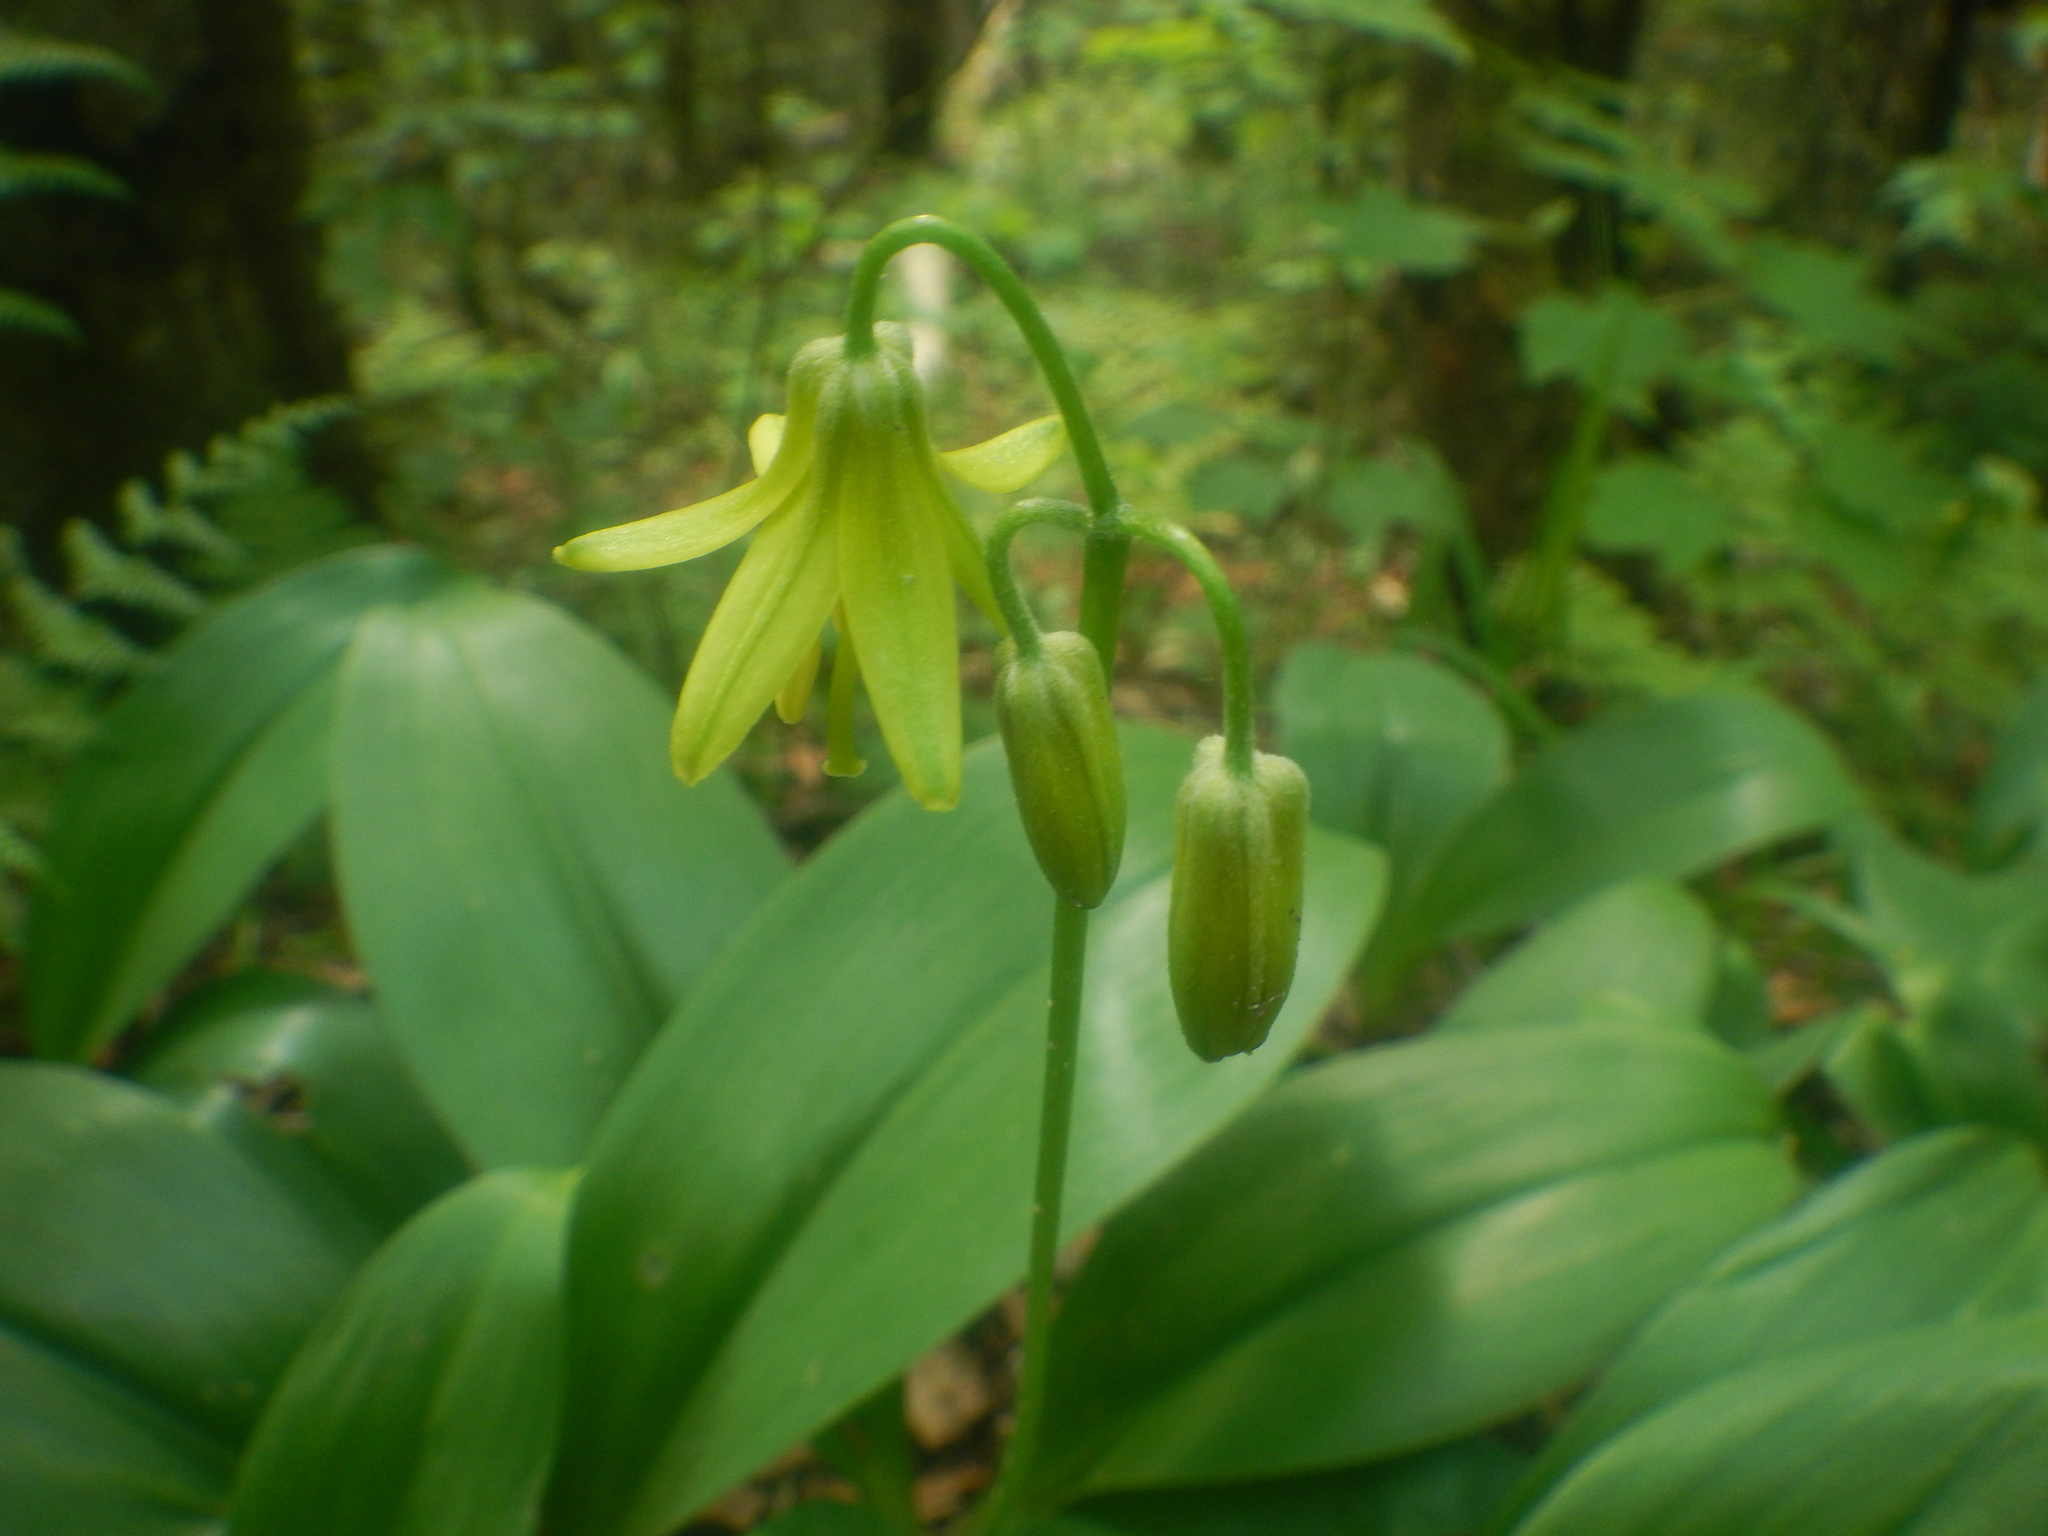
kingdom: Plantae
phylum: Tracheophyta
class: Liliopsida
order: Liliales
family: Liliaceae
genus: Clintonia
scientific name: Clintonia borealis
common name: Yellow clintonia
